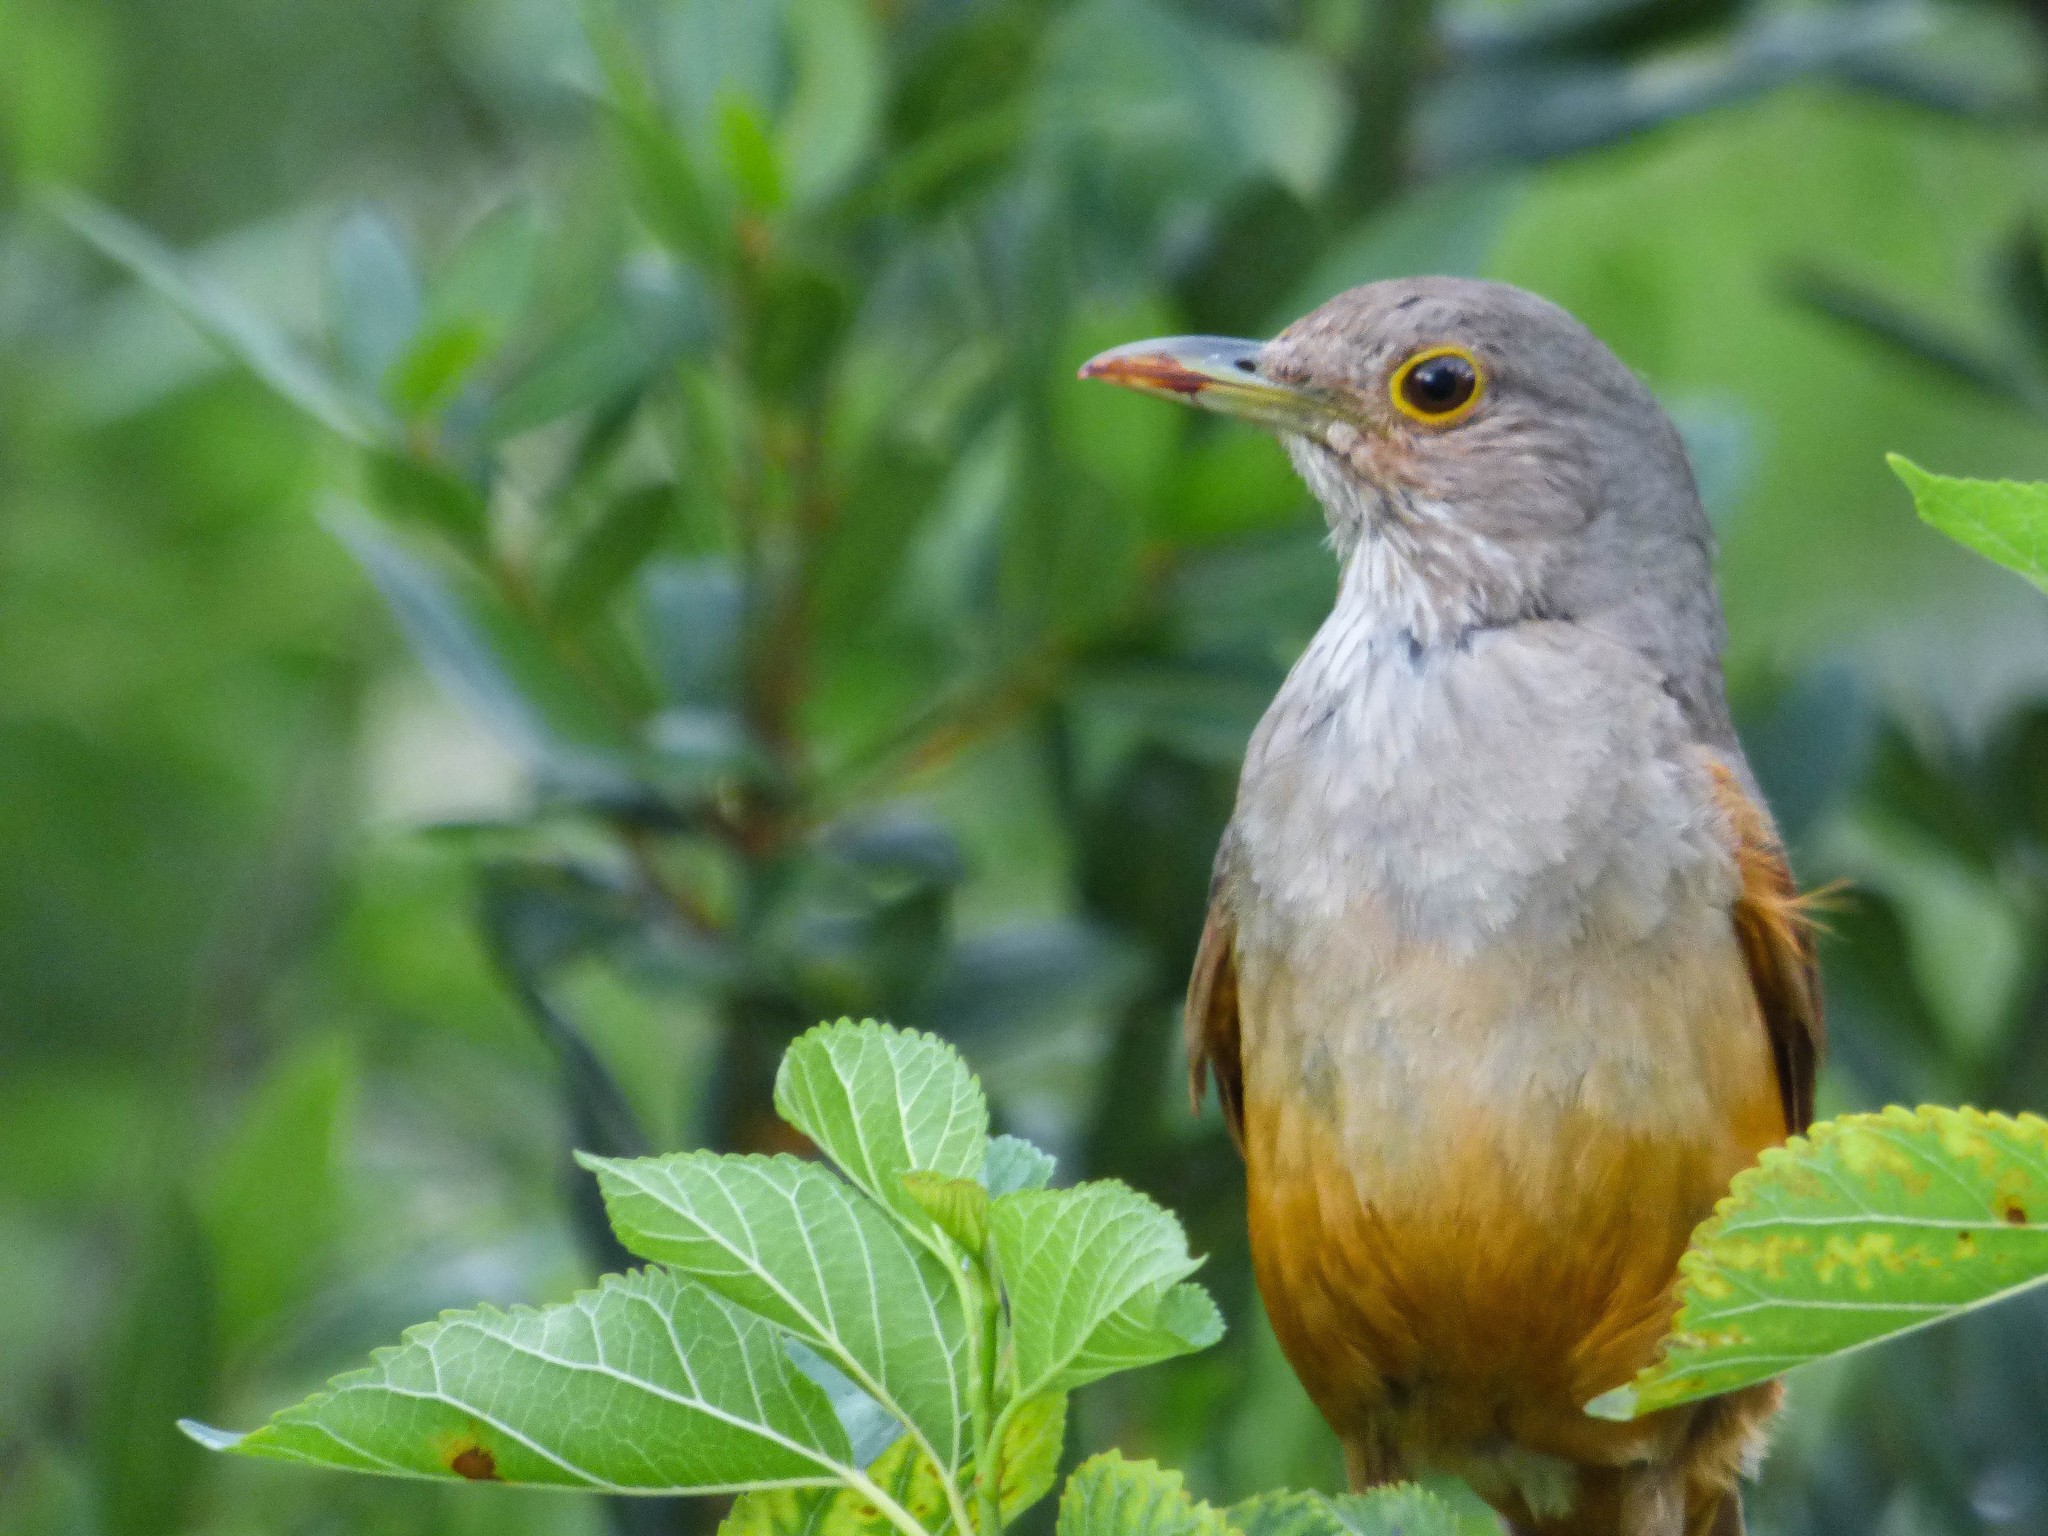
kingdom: Animalia
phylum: Chordata
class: Aves
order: Passeriformes
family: Turdidae
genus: Turdus
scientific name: Turdus rufiventris
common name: Rufous-bellied thrush
